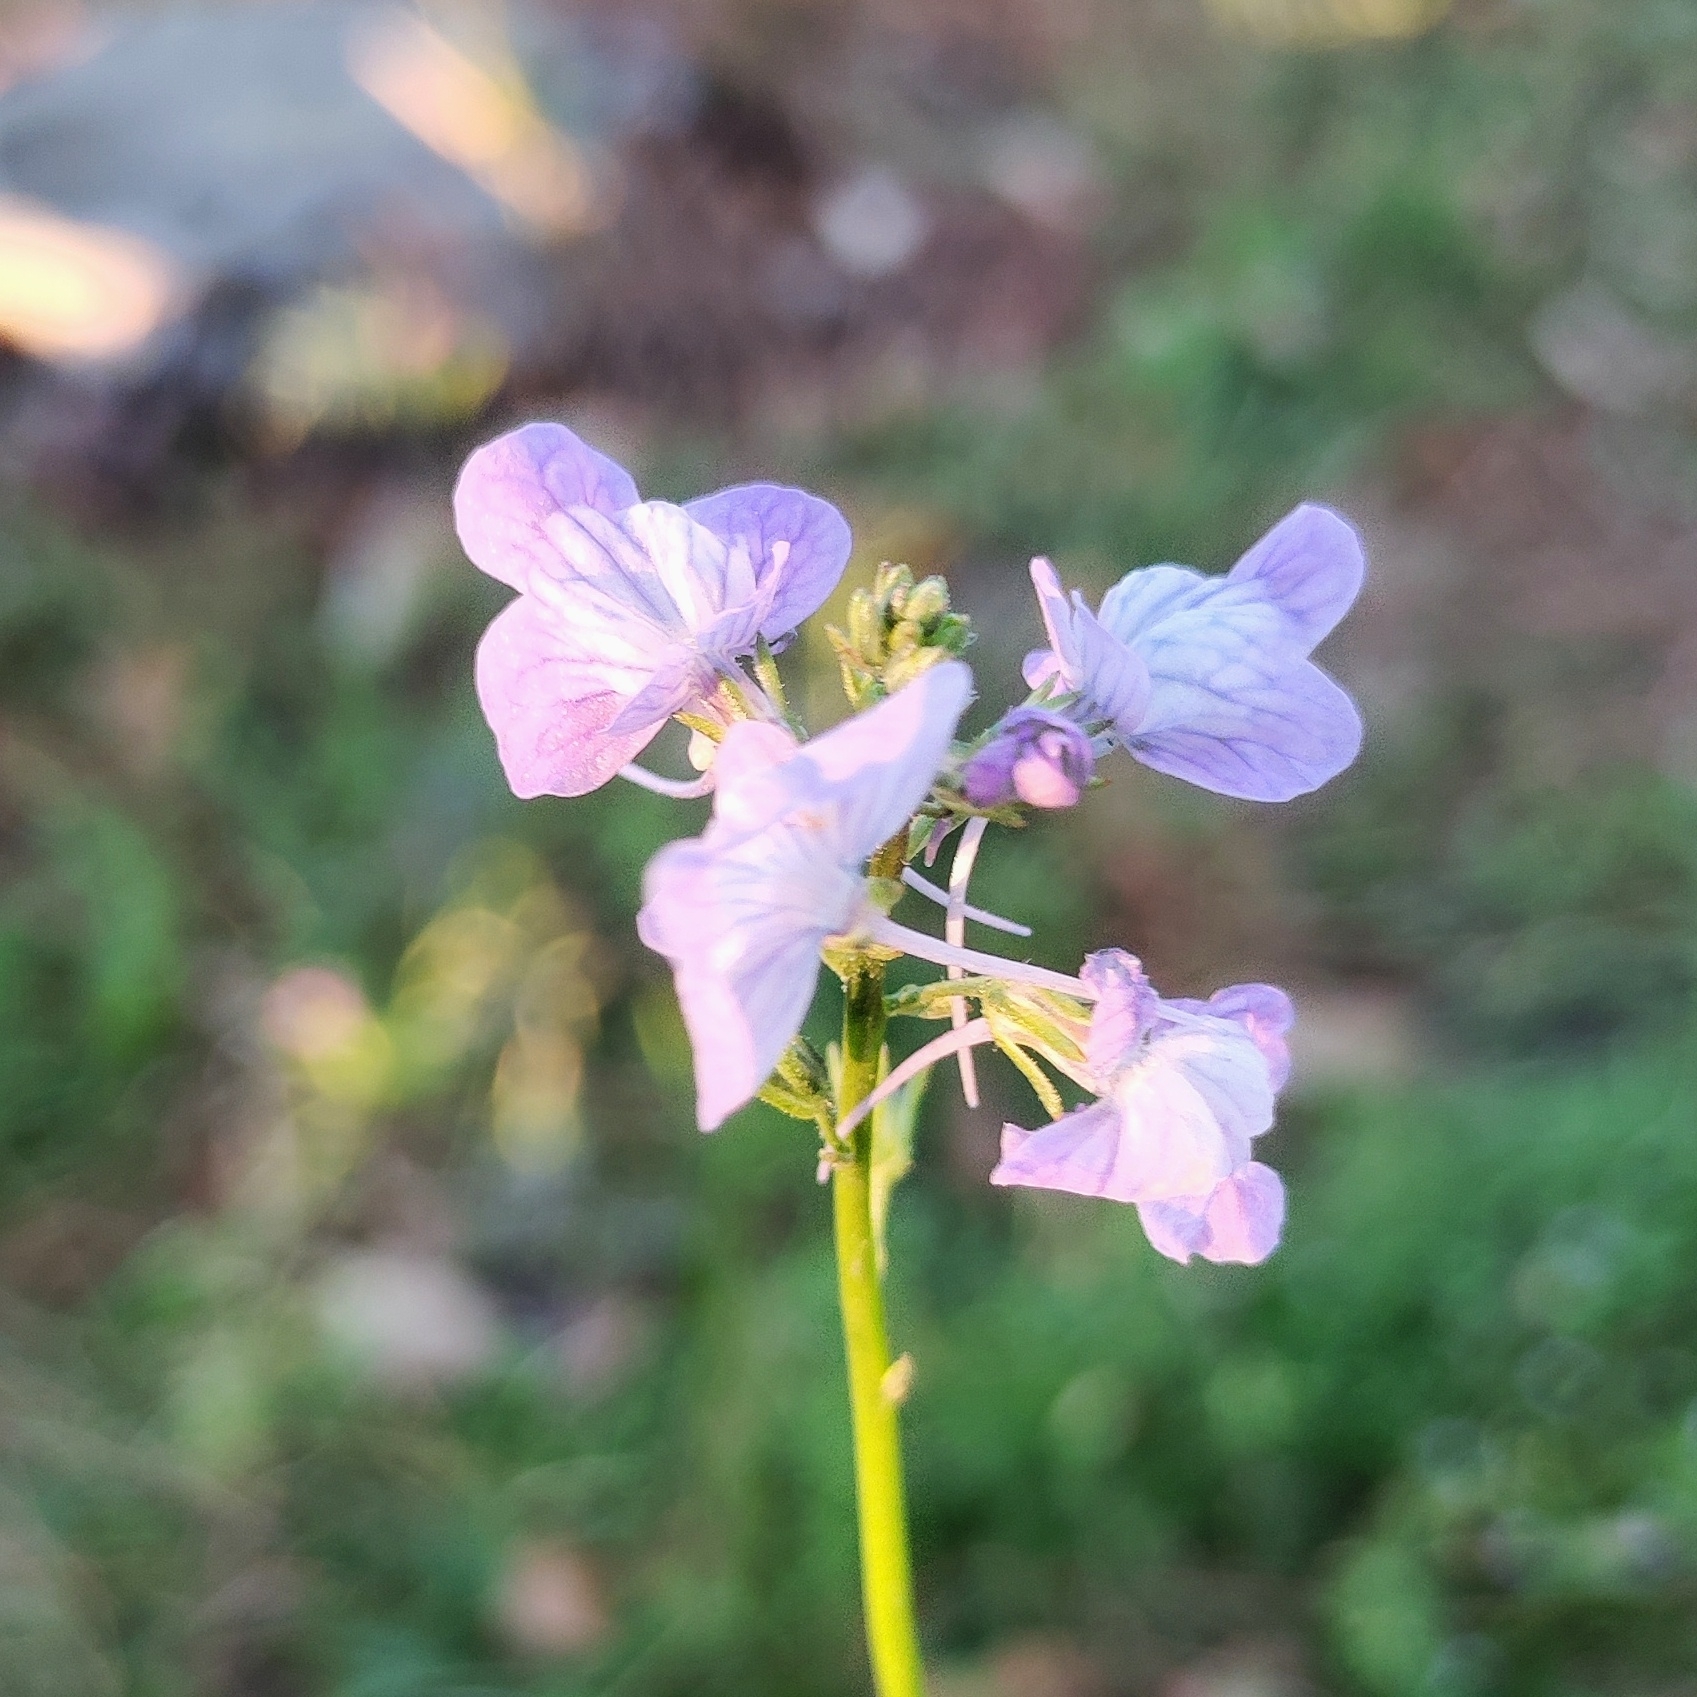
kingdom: Plantae
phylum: Tracheophyta
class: Magnoliopsida
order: Lamiales
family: Plantaginaceae
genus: Nuttallanthus
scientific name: Nuttallanthus texanus
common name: Texas toadflax
